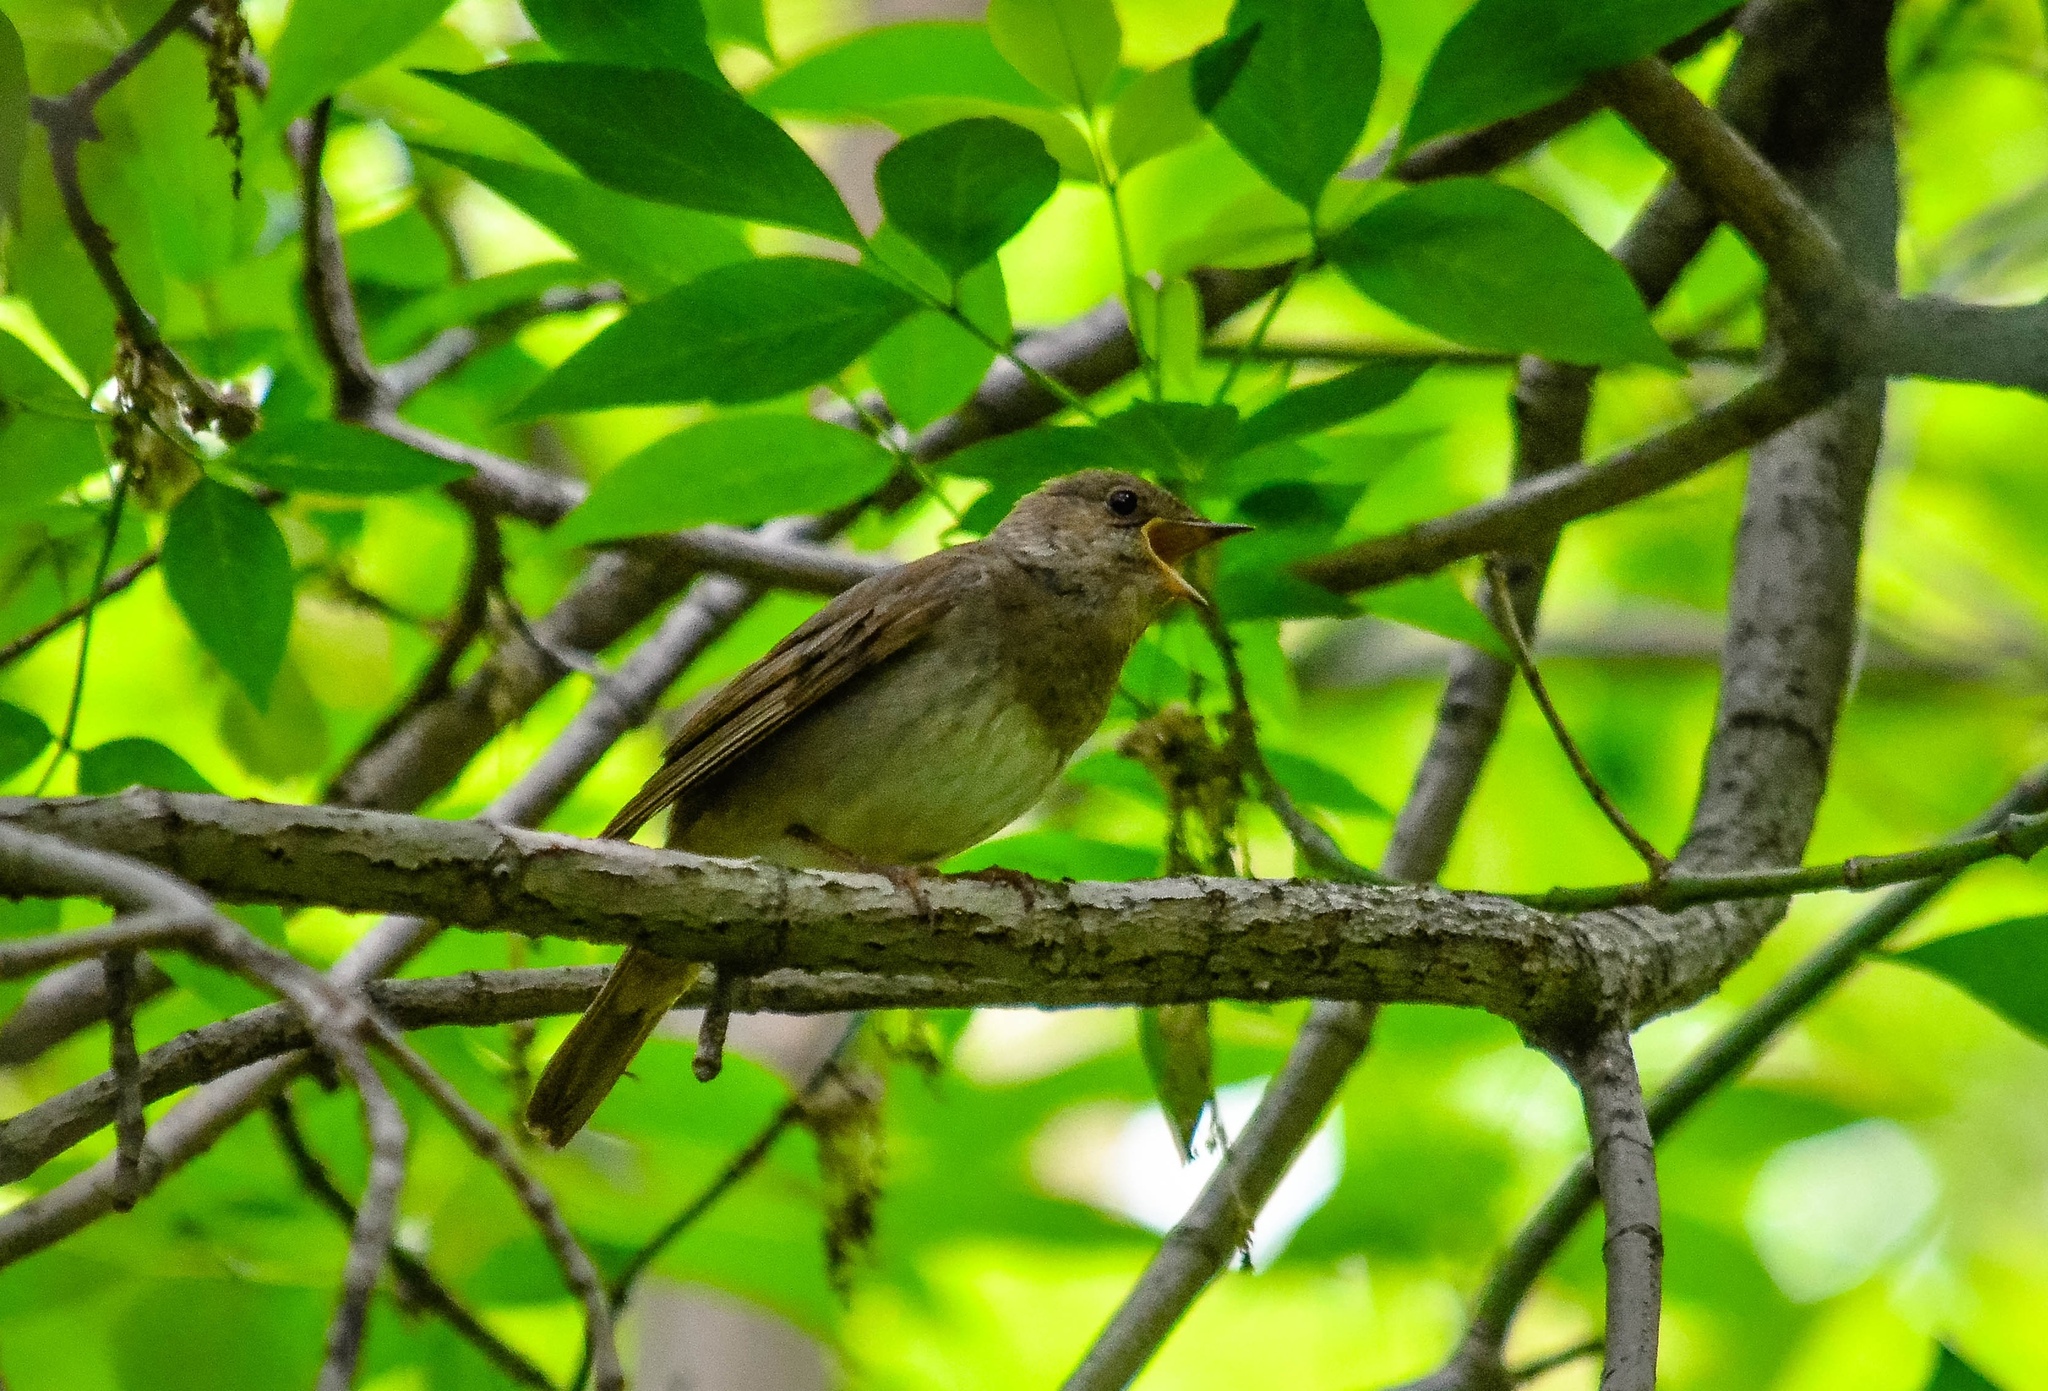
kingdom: Animalia
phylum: Chordata
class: Aves
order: Passeriformes
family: Muscicapidae
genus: Luscinia
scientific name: Luscinia luscinia
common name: Thrush nightingale
